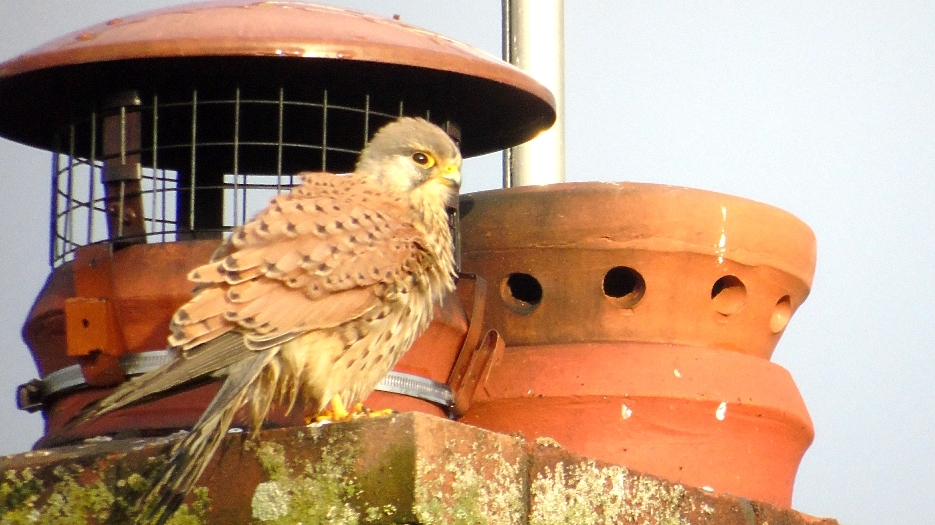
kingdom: Animalia
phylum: Chordata
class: Aves
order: Falconiformes
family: Falconidae
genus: Falco
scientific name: Falco tinnunculus
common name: Common kestrel
